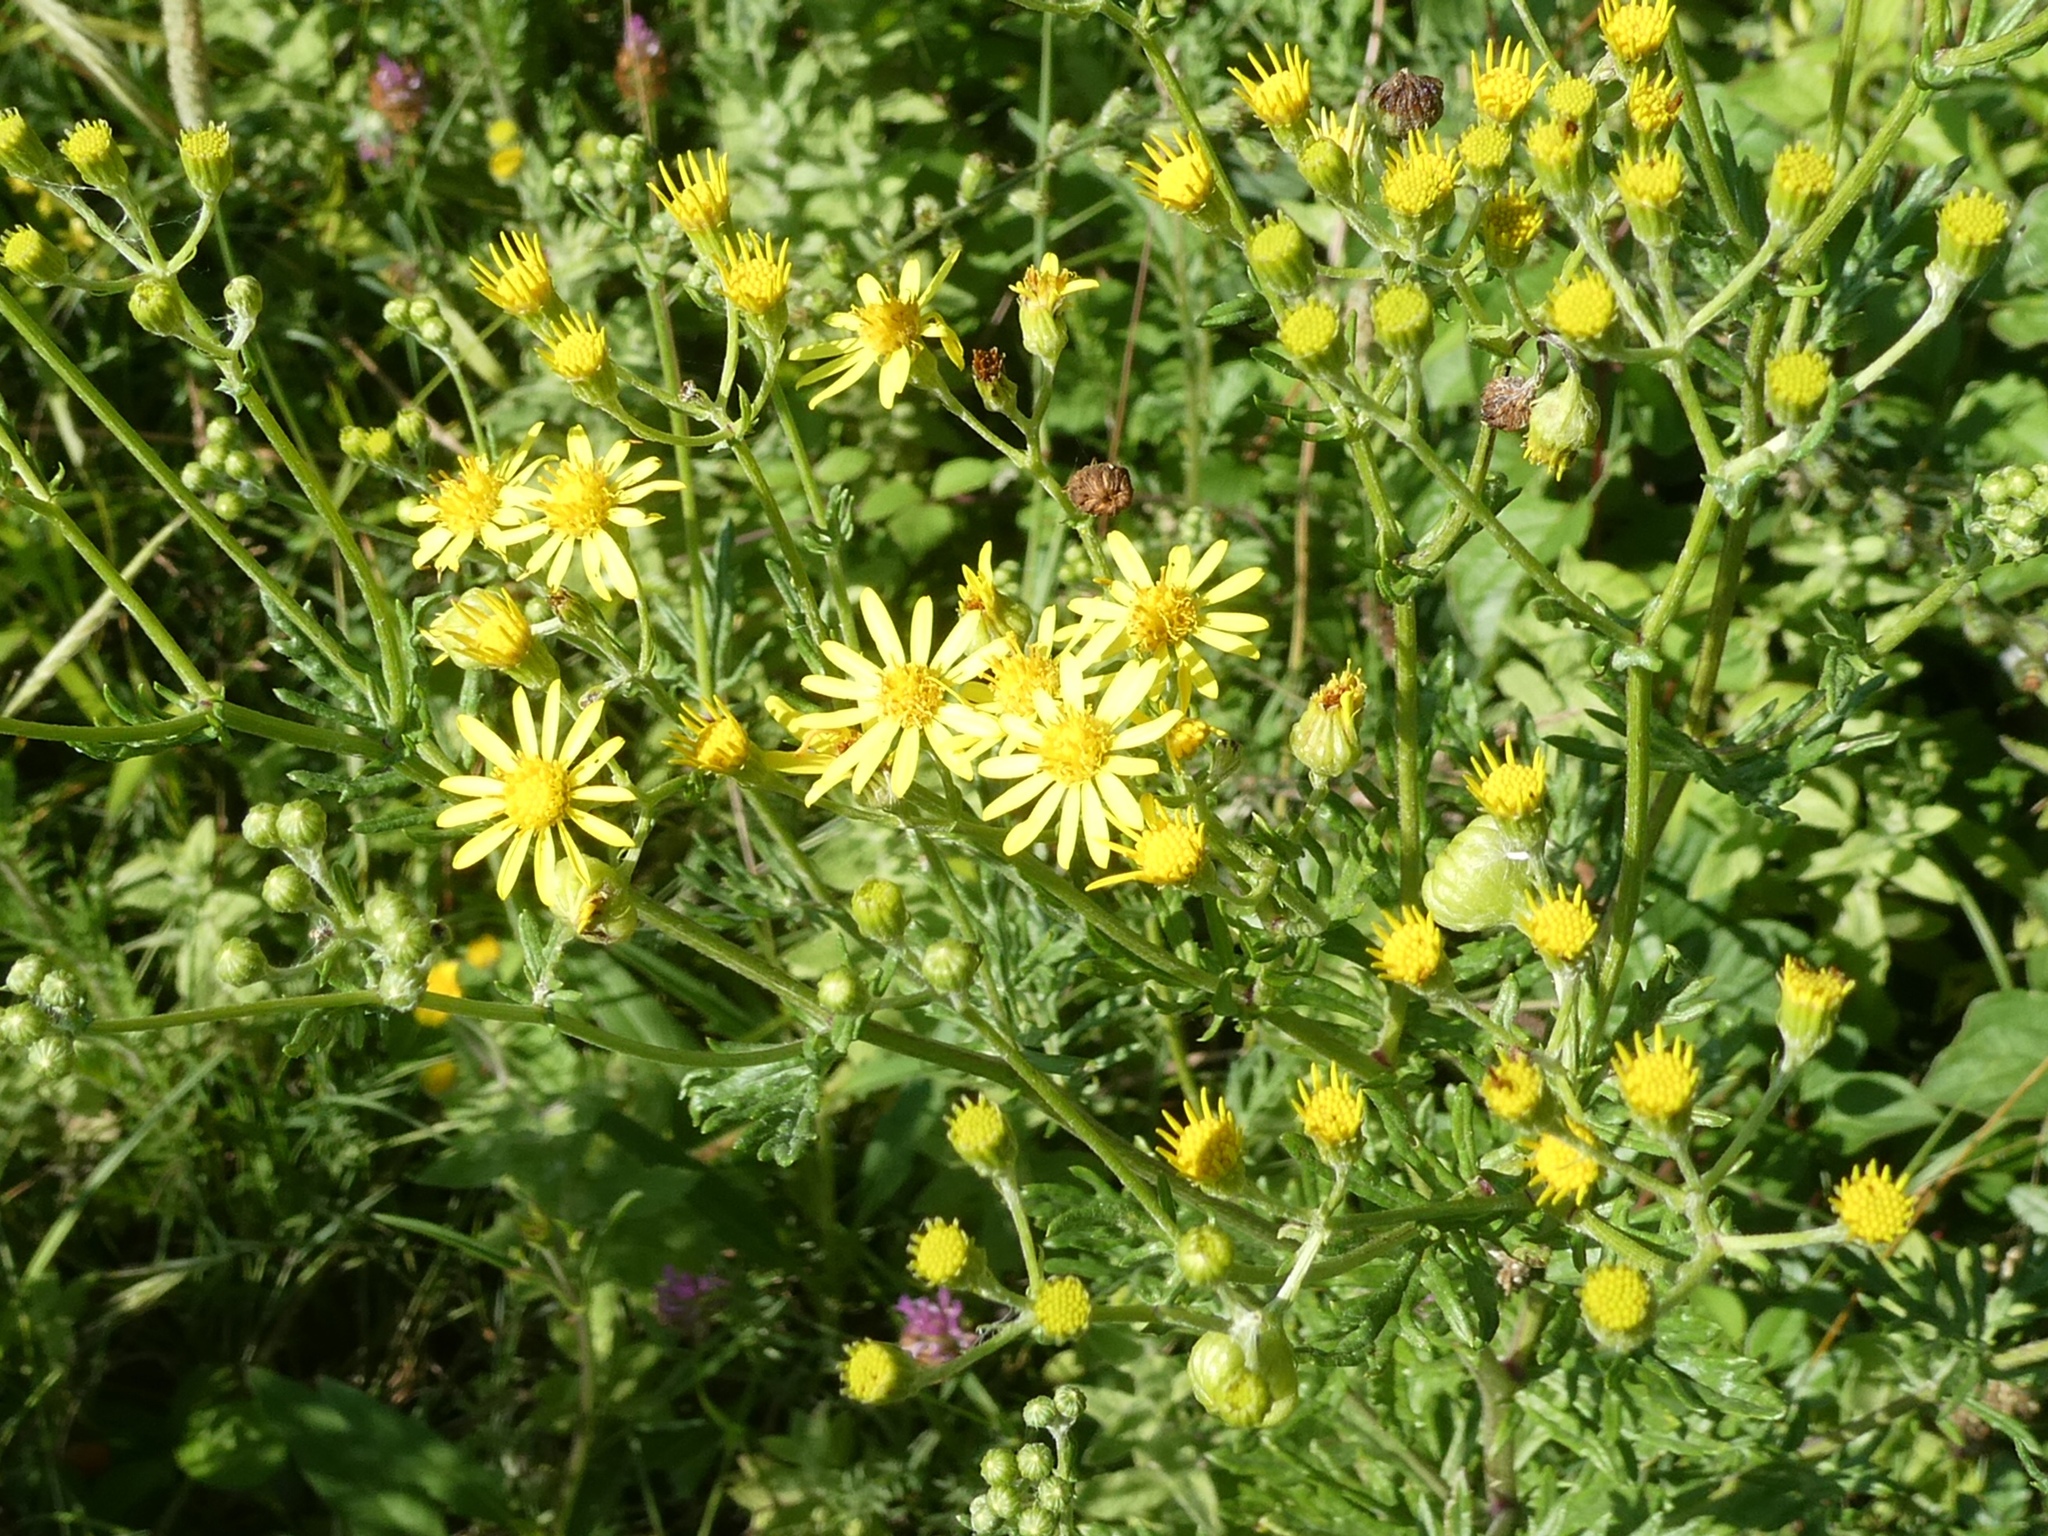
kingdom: Plantae
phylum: Tracheophyta
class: Magnoliopsida
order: Asterales
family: Asteraceae
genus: Jacobaea
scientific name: Jacobaea erucifolia
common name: Hoary ragwort
